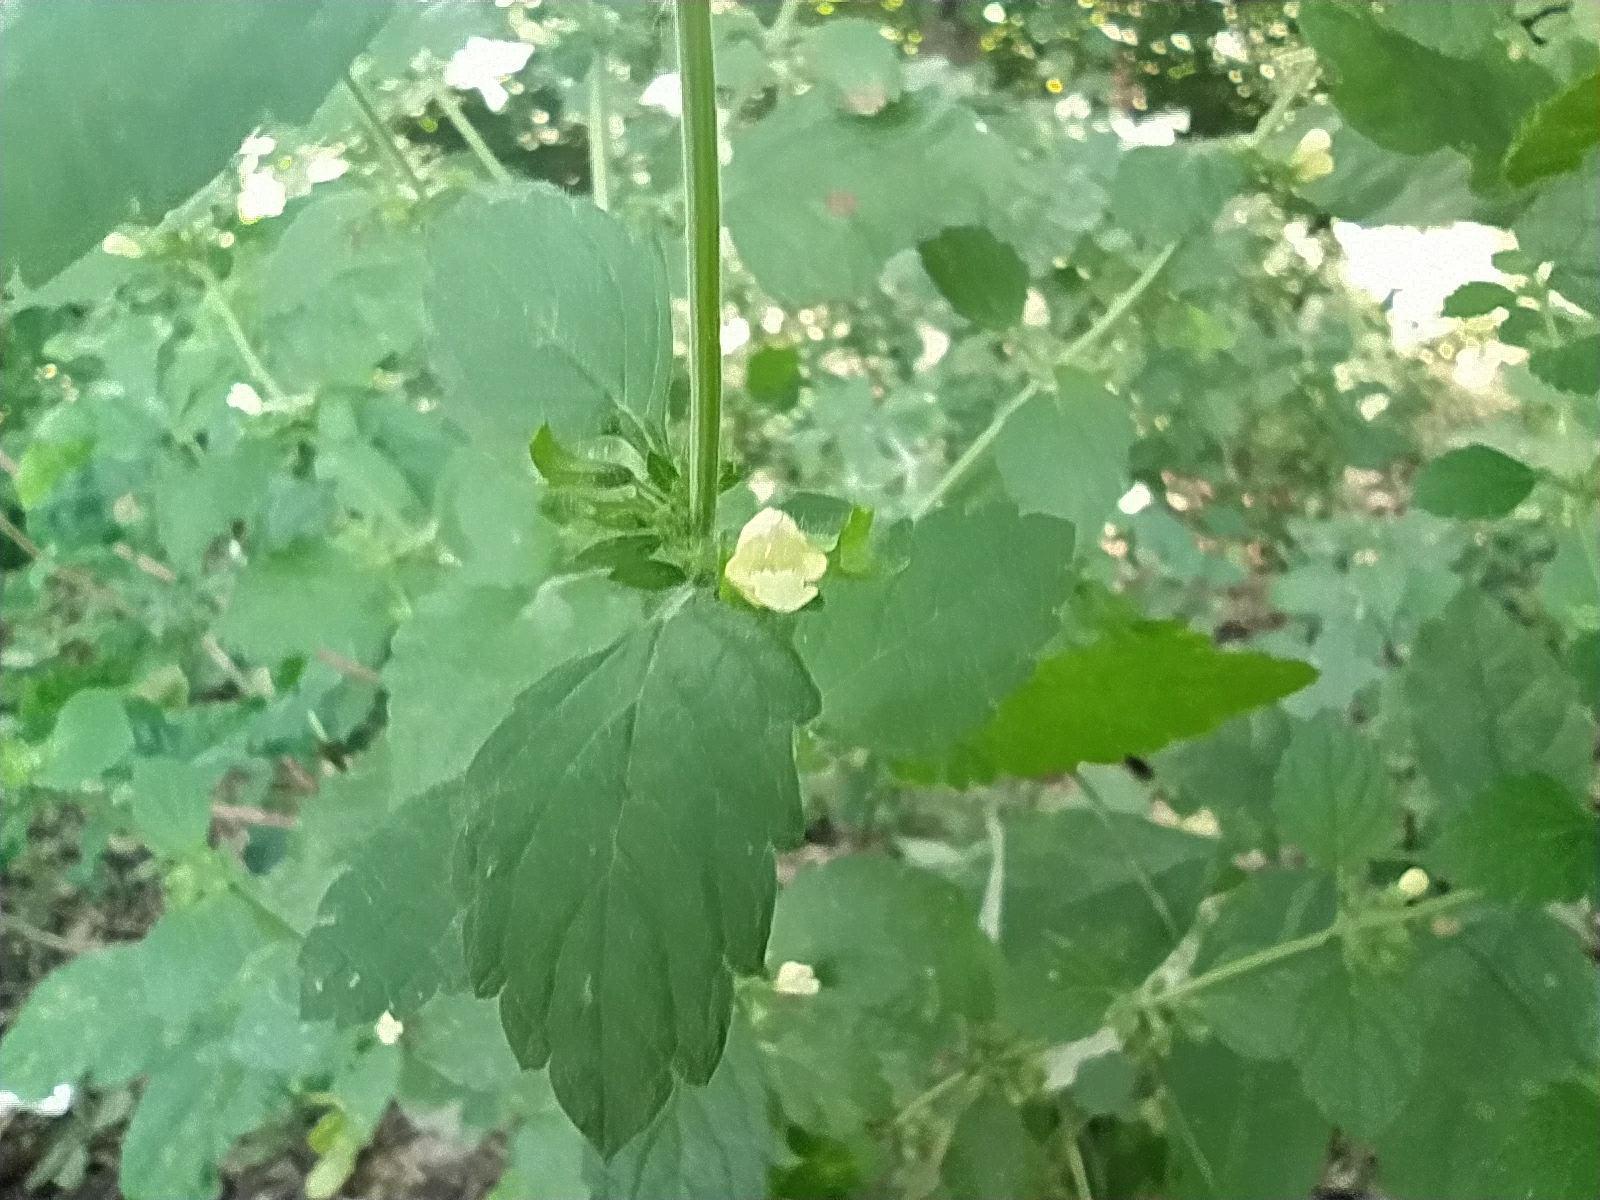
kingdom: Plantae
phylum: Tracheophyta
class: Magnoliopsida
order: Lamiales
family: Lamiaceae
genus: Melissa
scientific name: Melissa officinalis
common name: Balm
